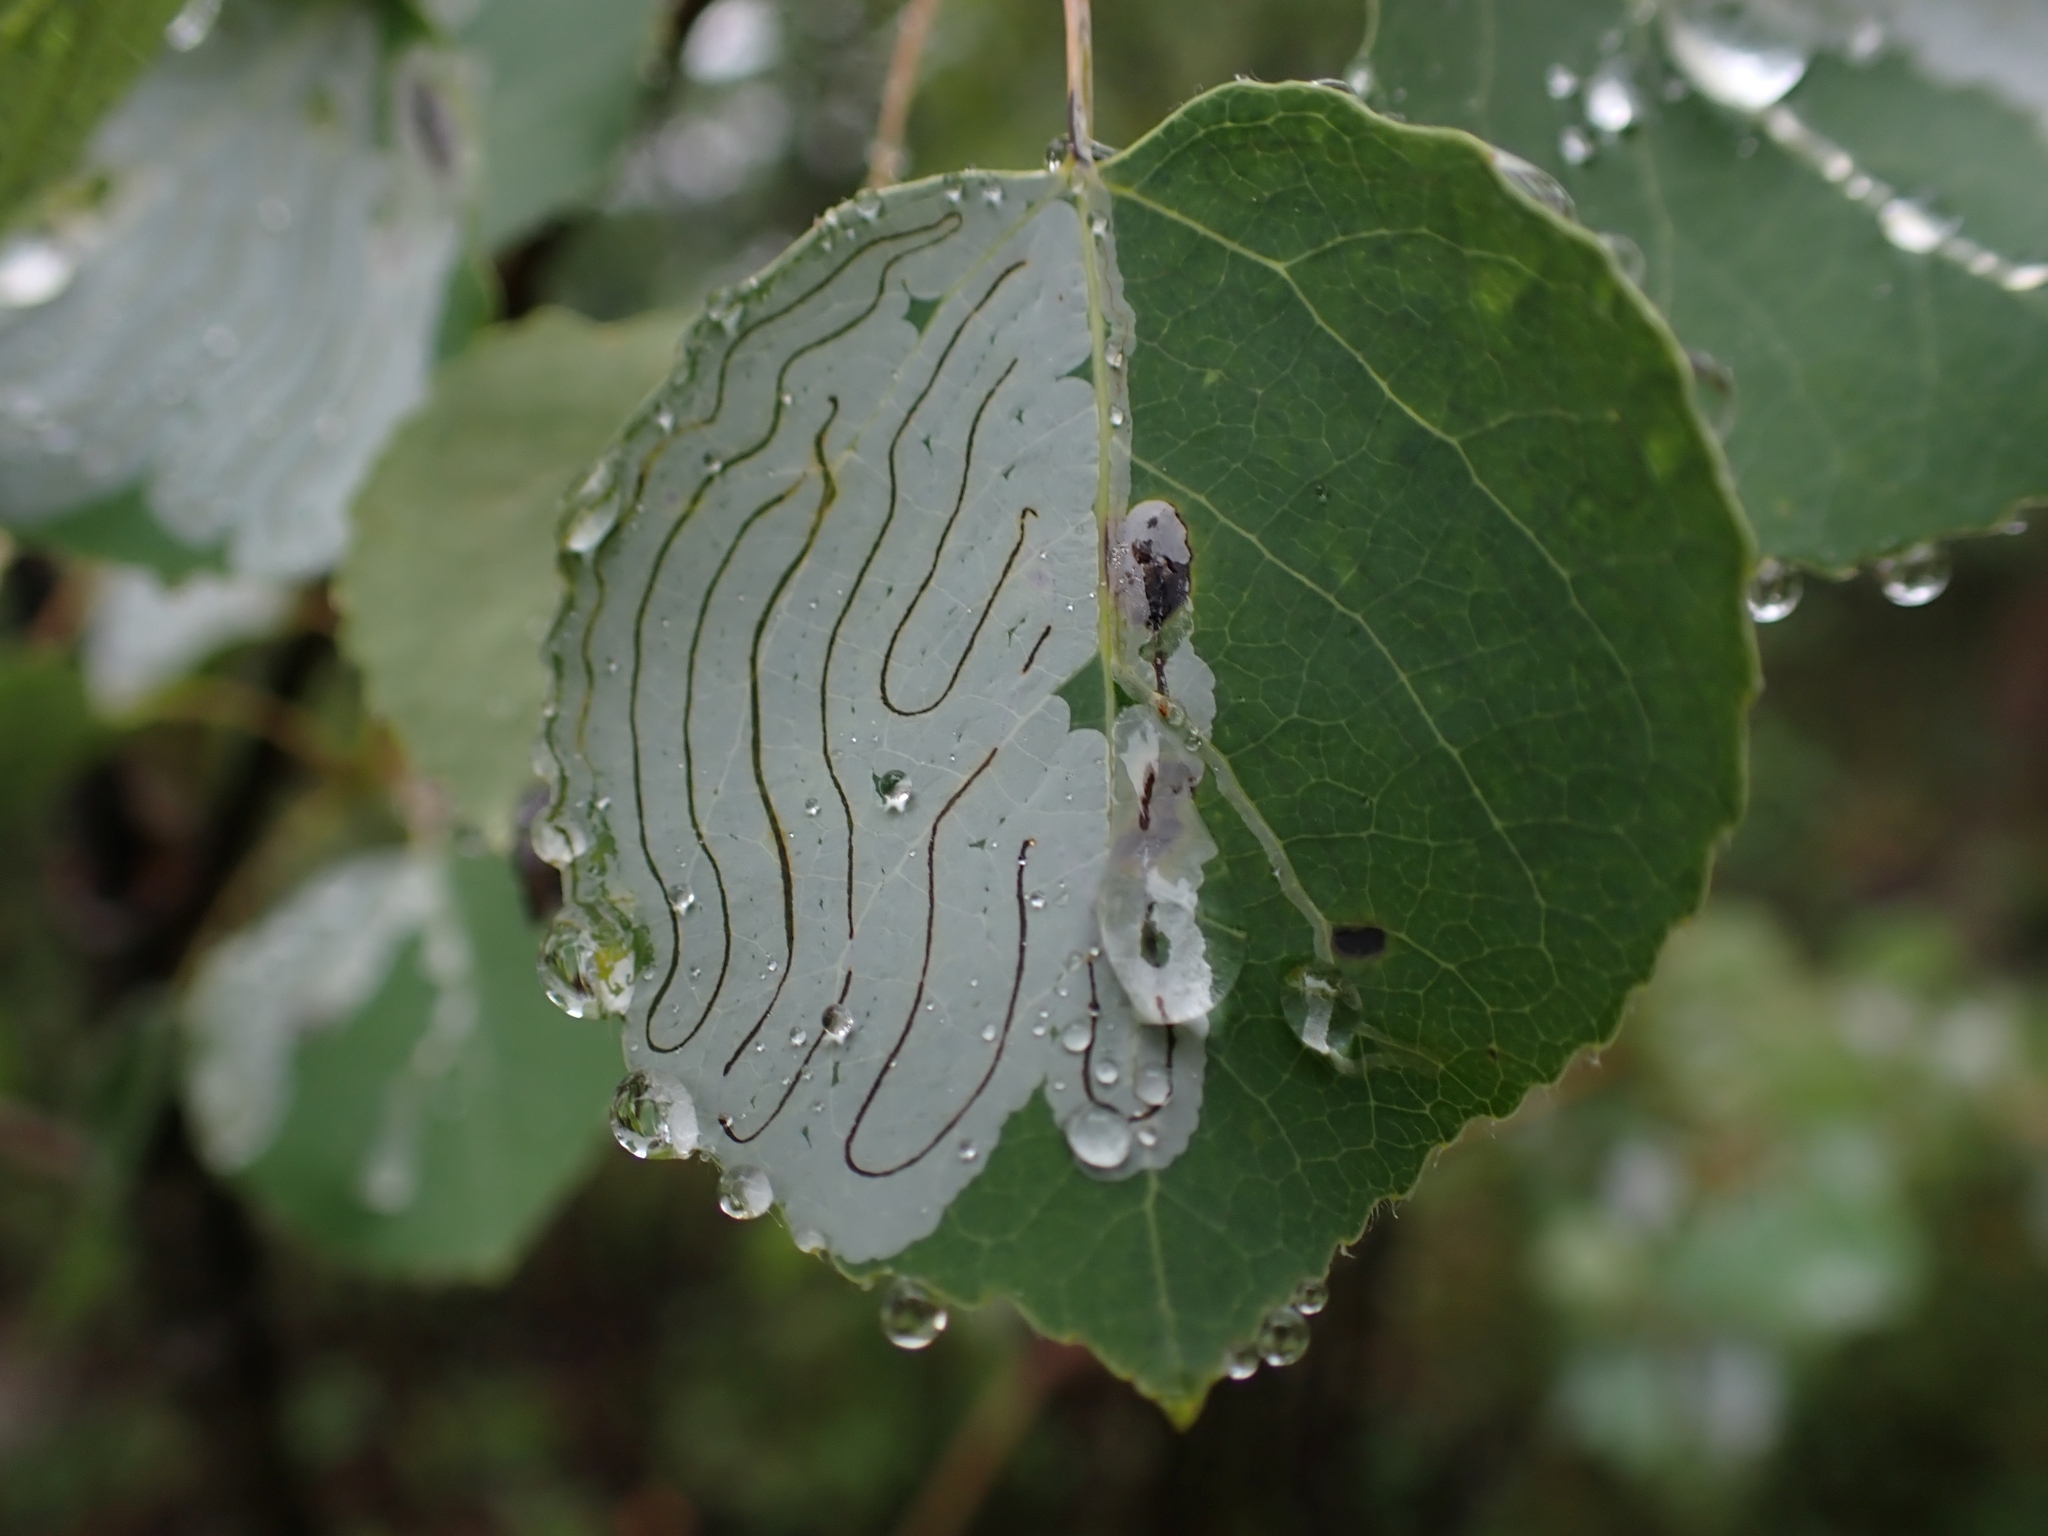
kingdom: Animalia
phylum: Arthropoda
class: Insecta
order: Lepidoptera
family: Gracillariidae
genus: Phyllocnistis
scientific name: Phyllocnistis populiella
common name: Aspen serpentine leafminer moth
